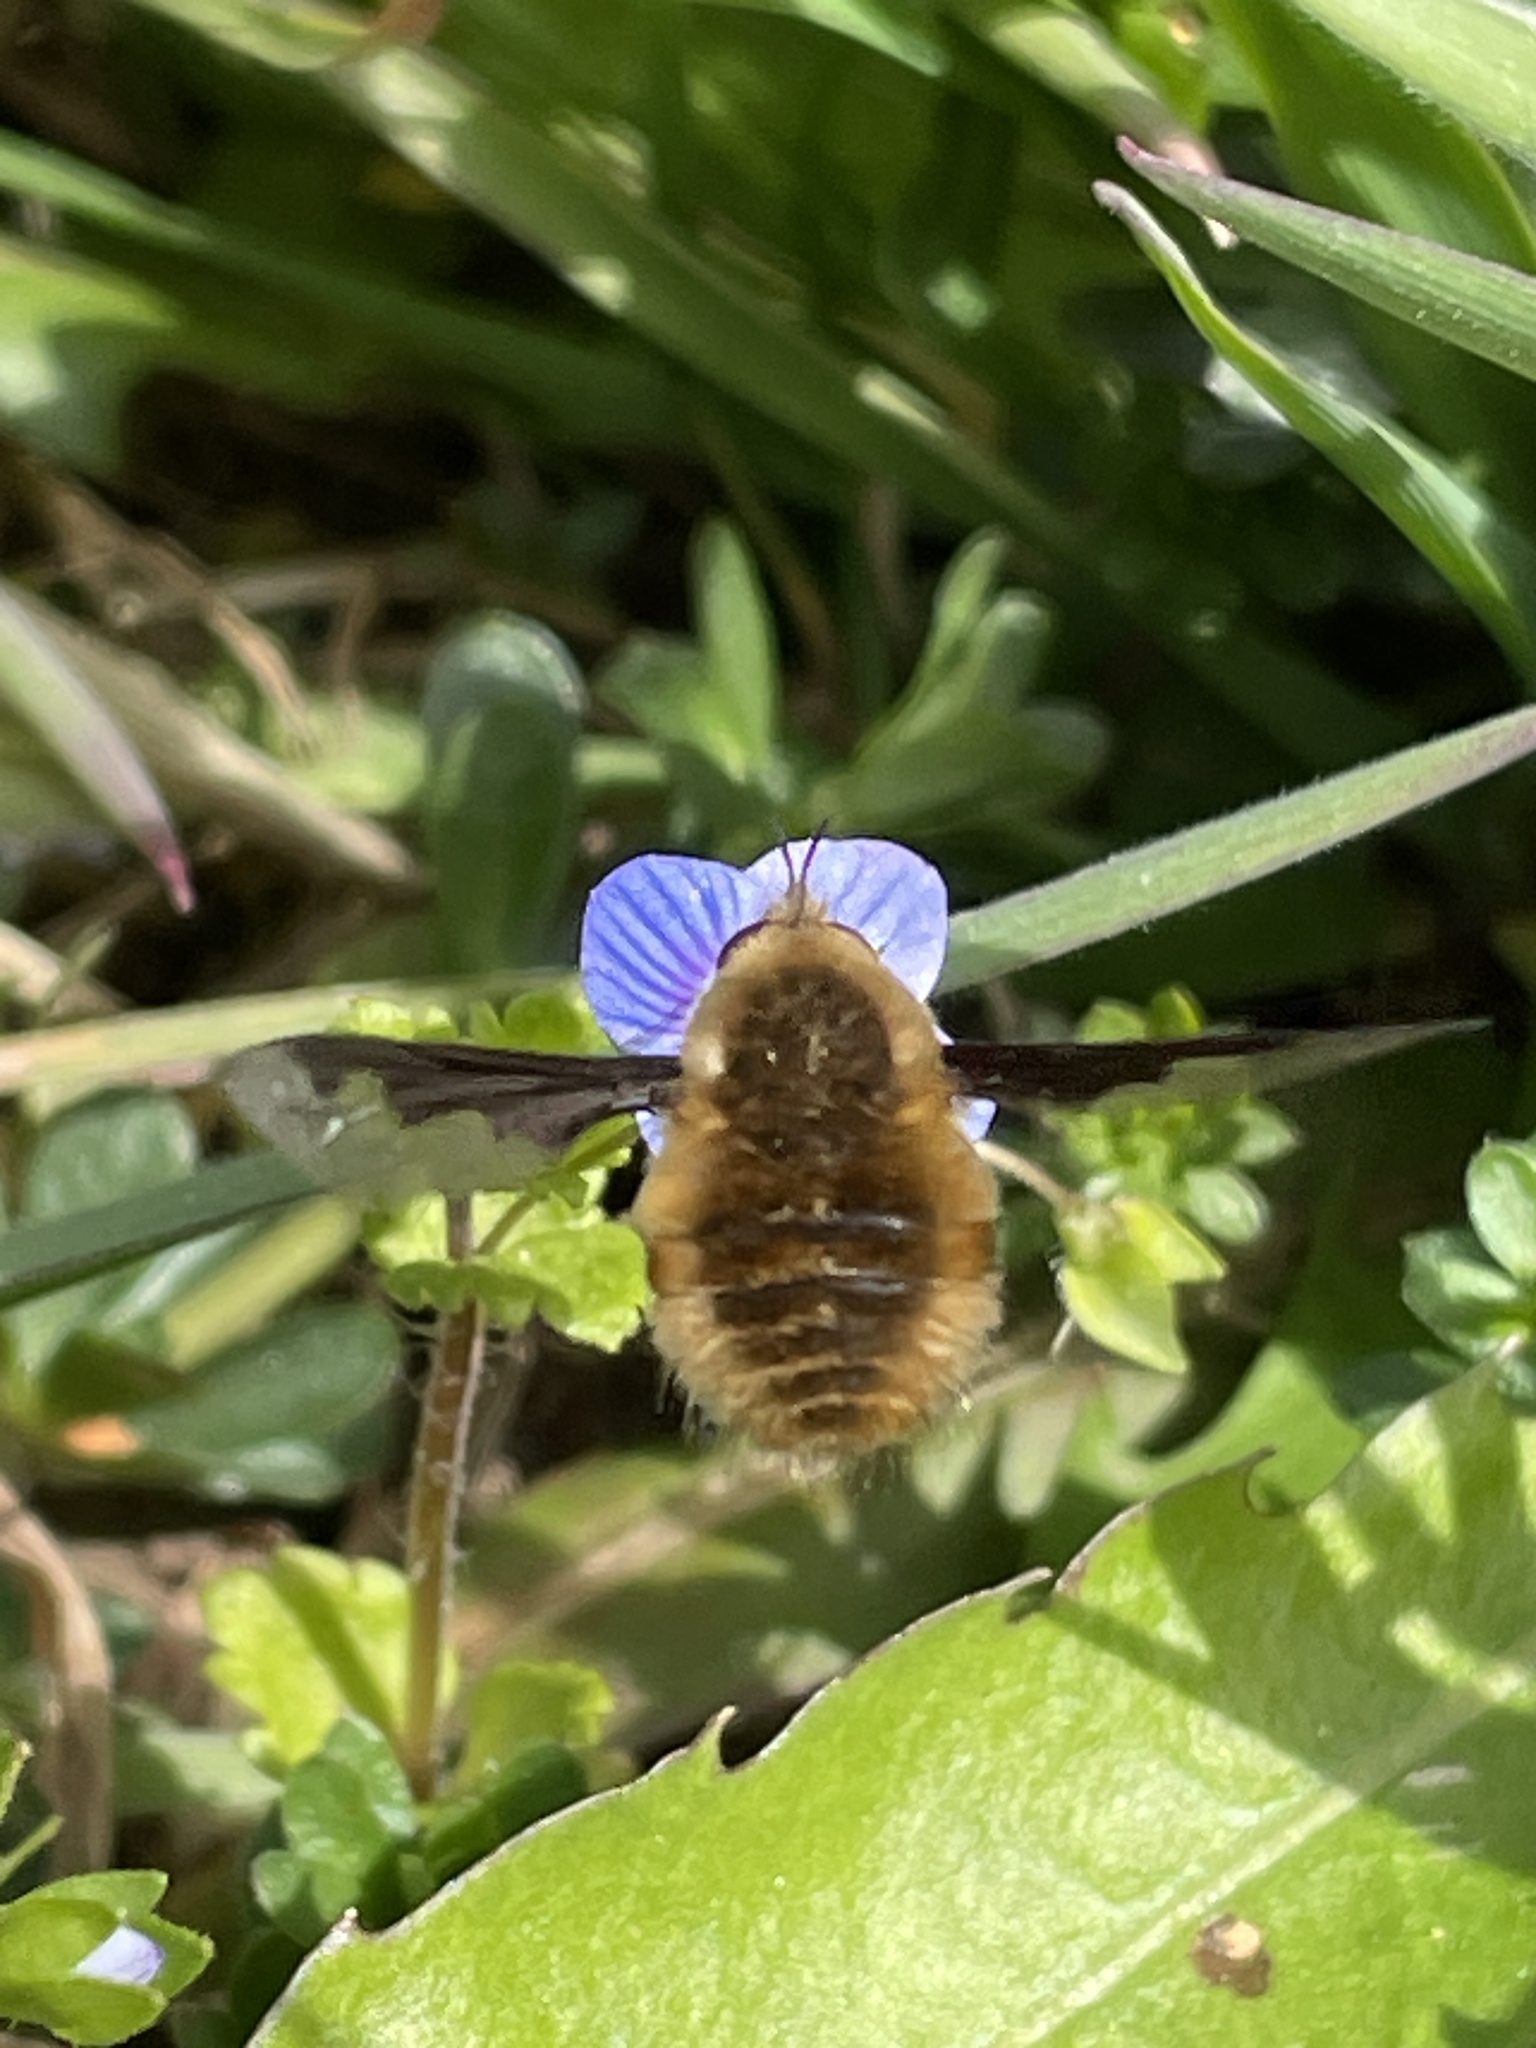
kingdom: Animalia
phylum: Arthropoda
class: Insecta
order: Diptera
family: Bombyliidae
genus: Bombylius
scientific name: Bombylius major
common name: Bee fly
